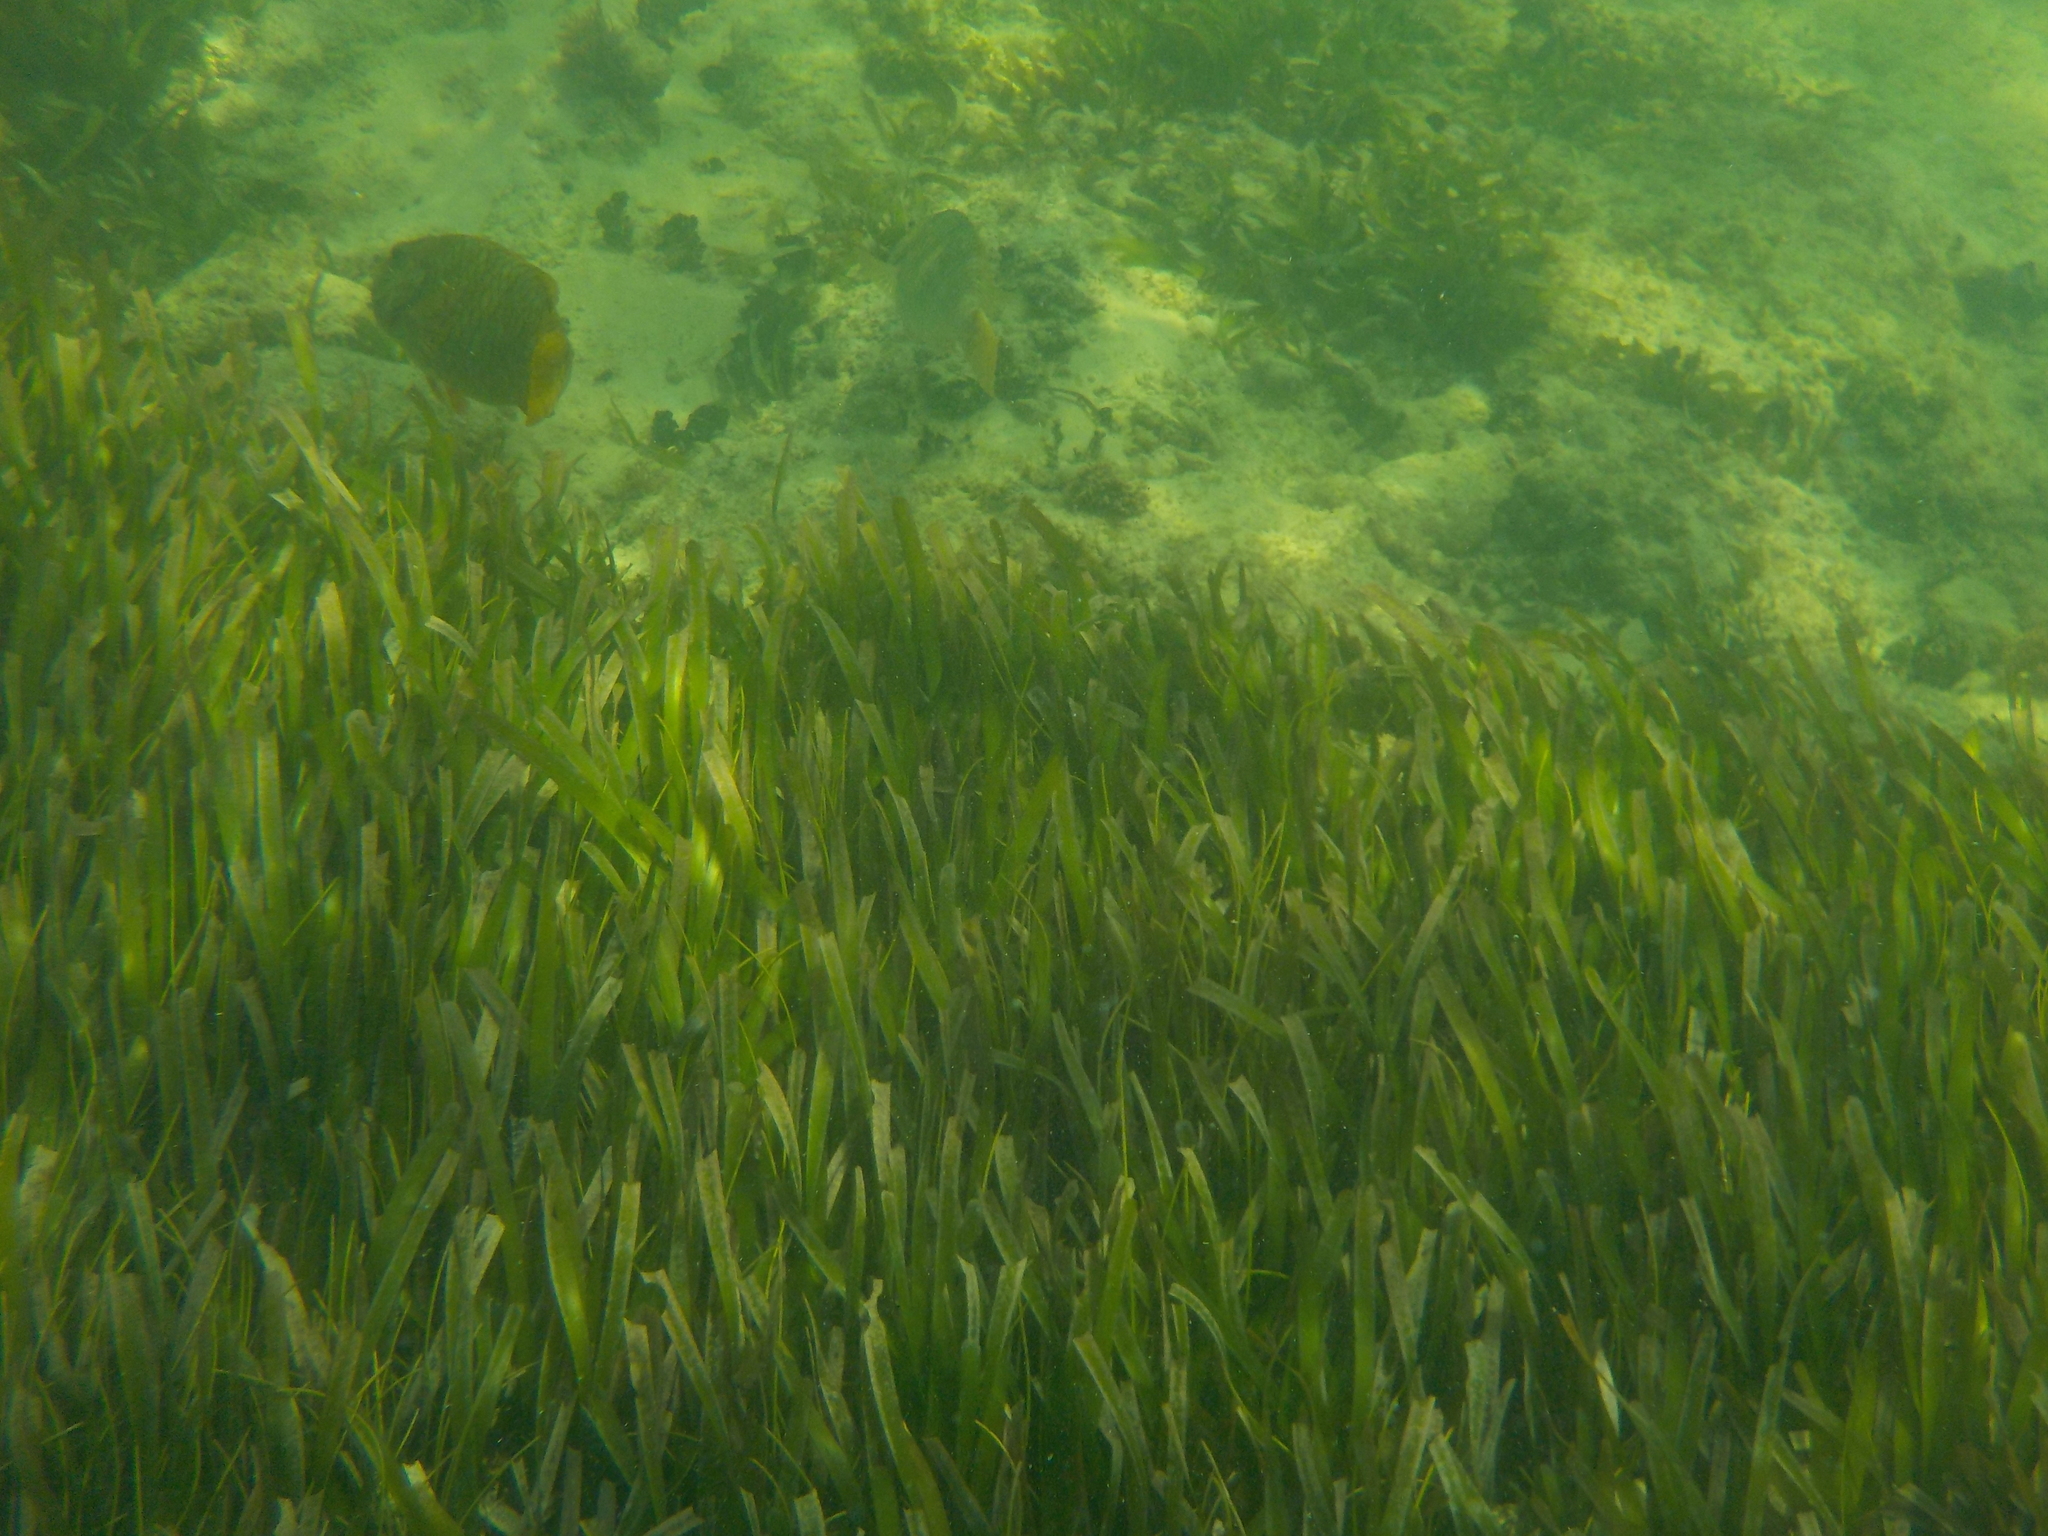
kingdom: Plantae
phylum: Tracheophyta
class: Liliopsida
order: Alismatales
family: Hydrocharitaceae
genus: Thalassia
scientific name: Thalassia testudinum
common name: Species code: tt
